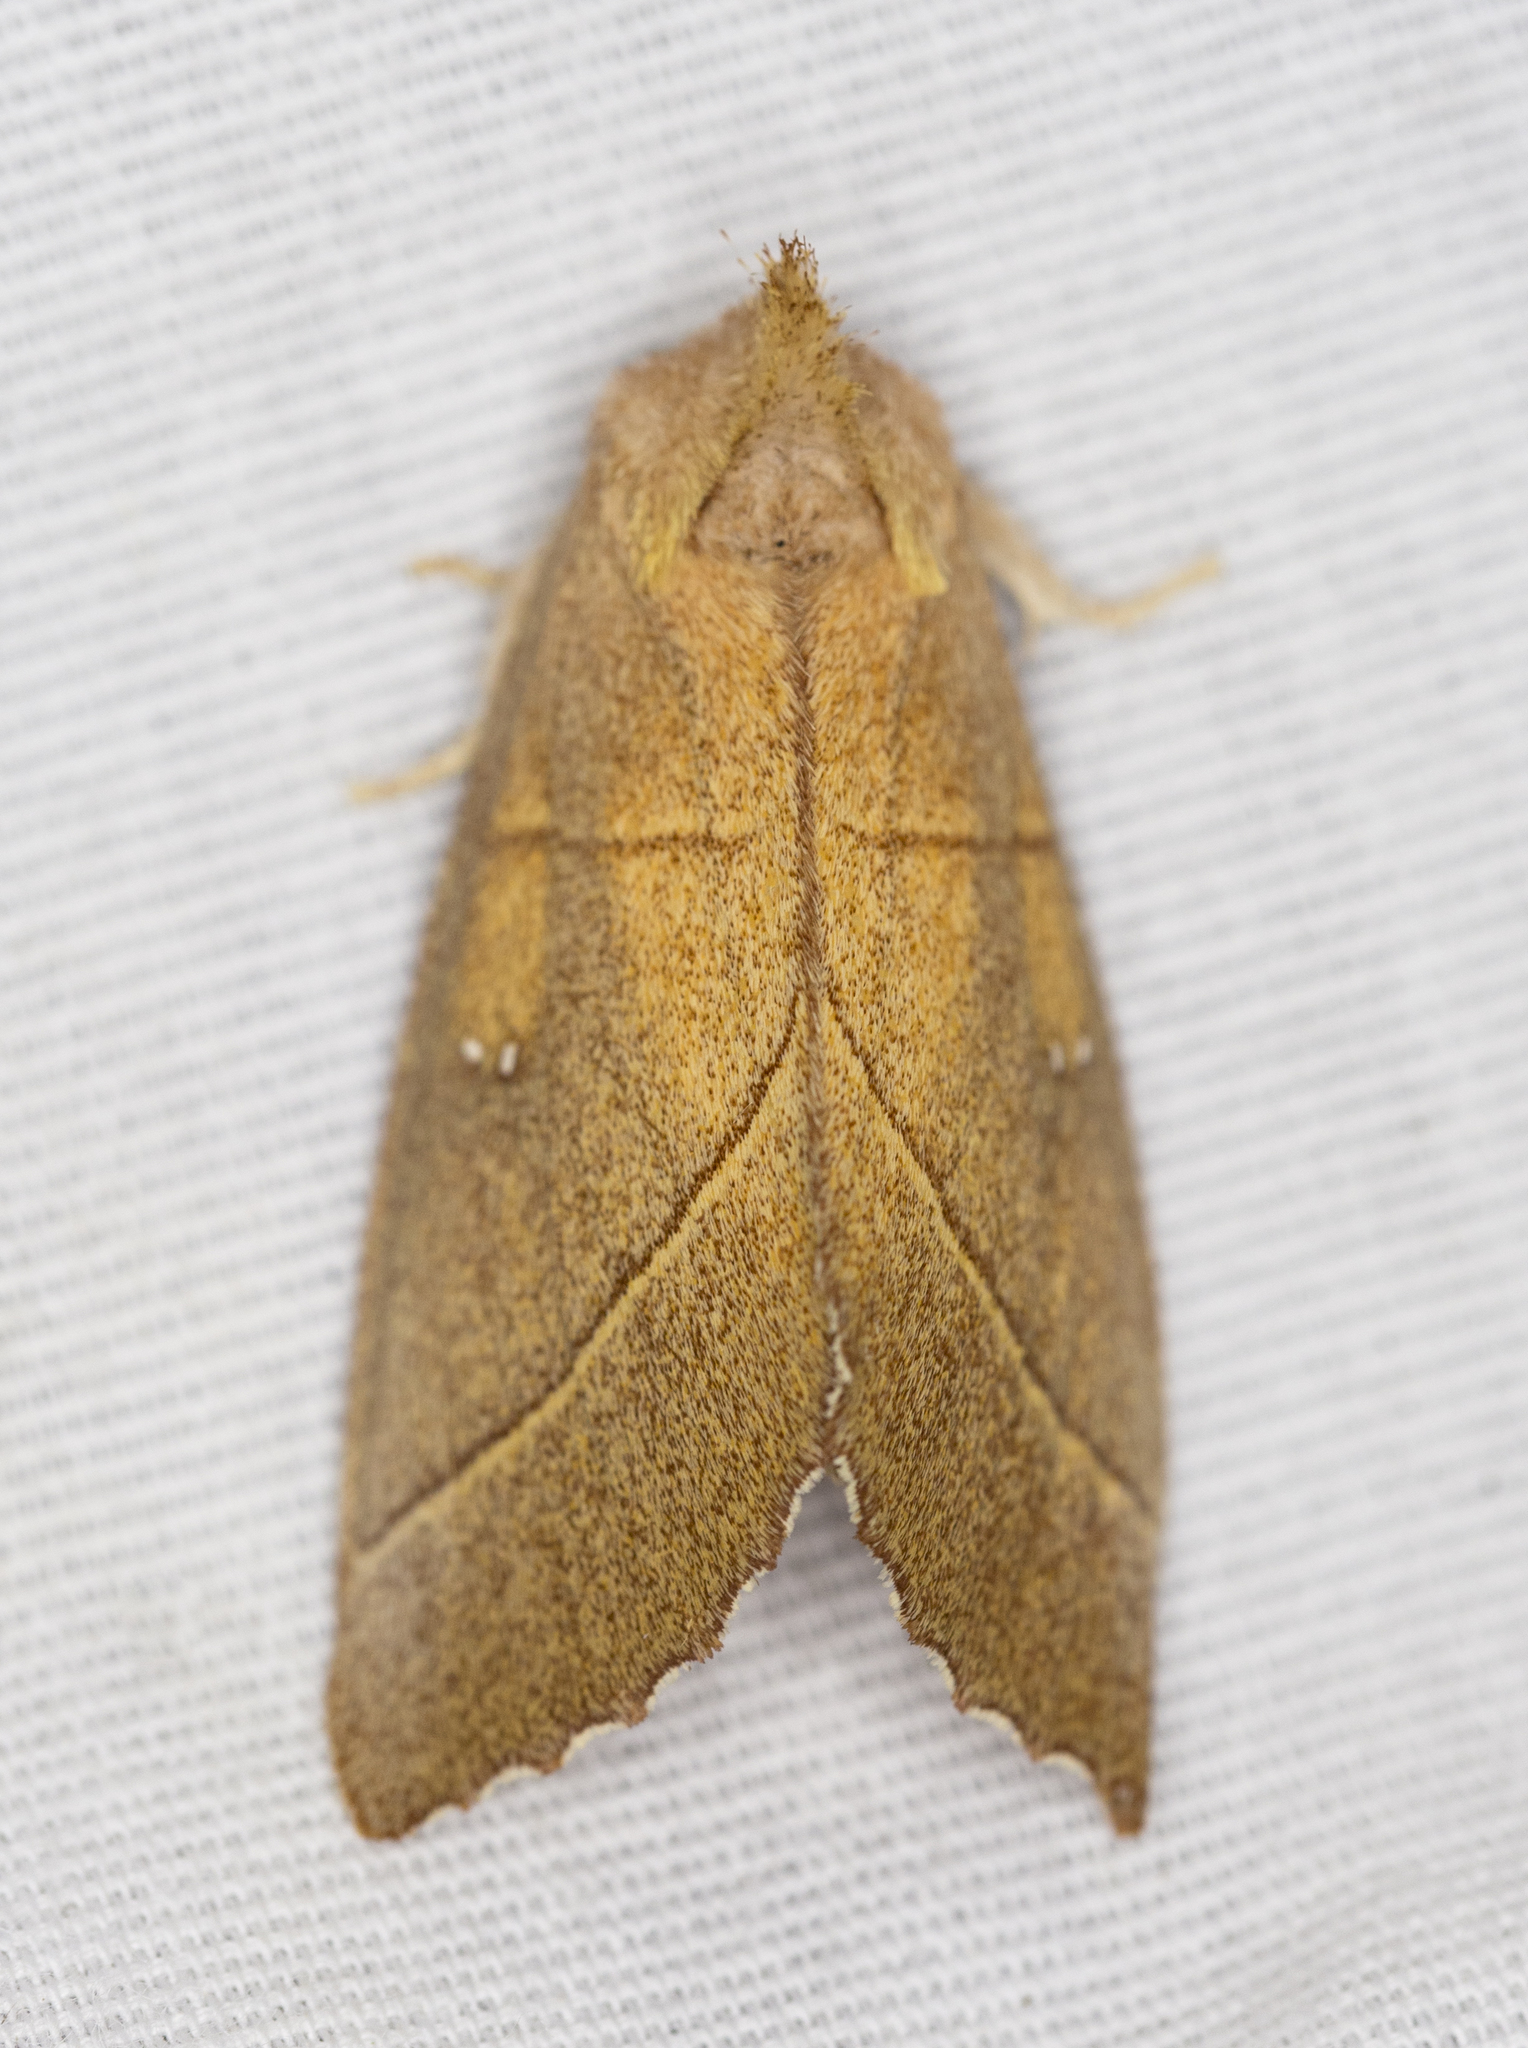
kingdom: Animalia
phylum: Arthropoda
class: Insecta
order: Lepidoptera
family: Notodontidae
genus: Nadata
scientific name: Nadata gibbosa
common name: White-dotted prominent
